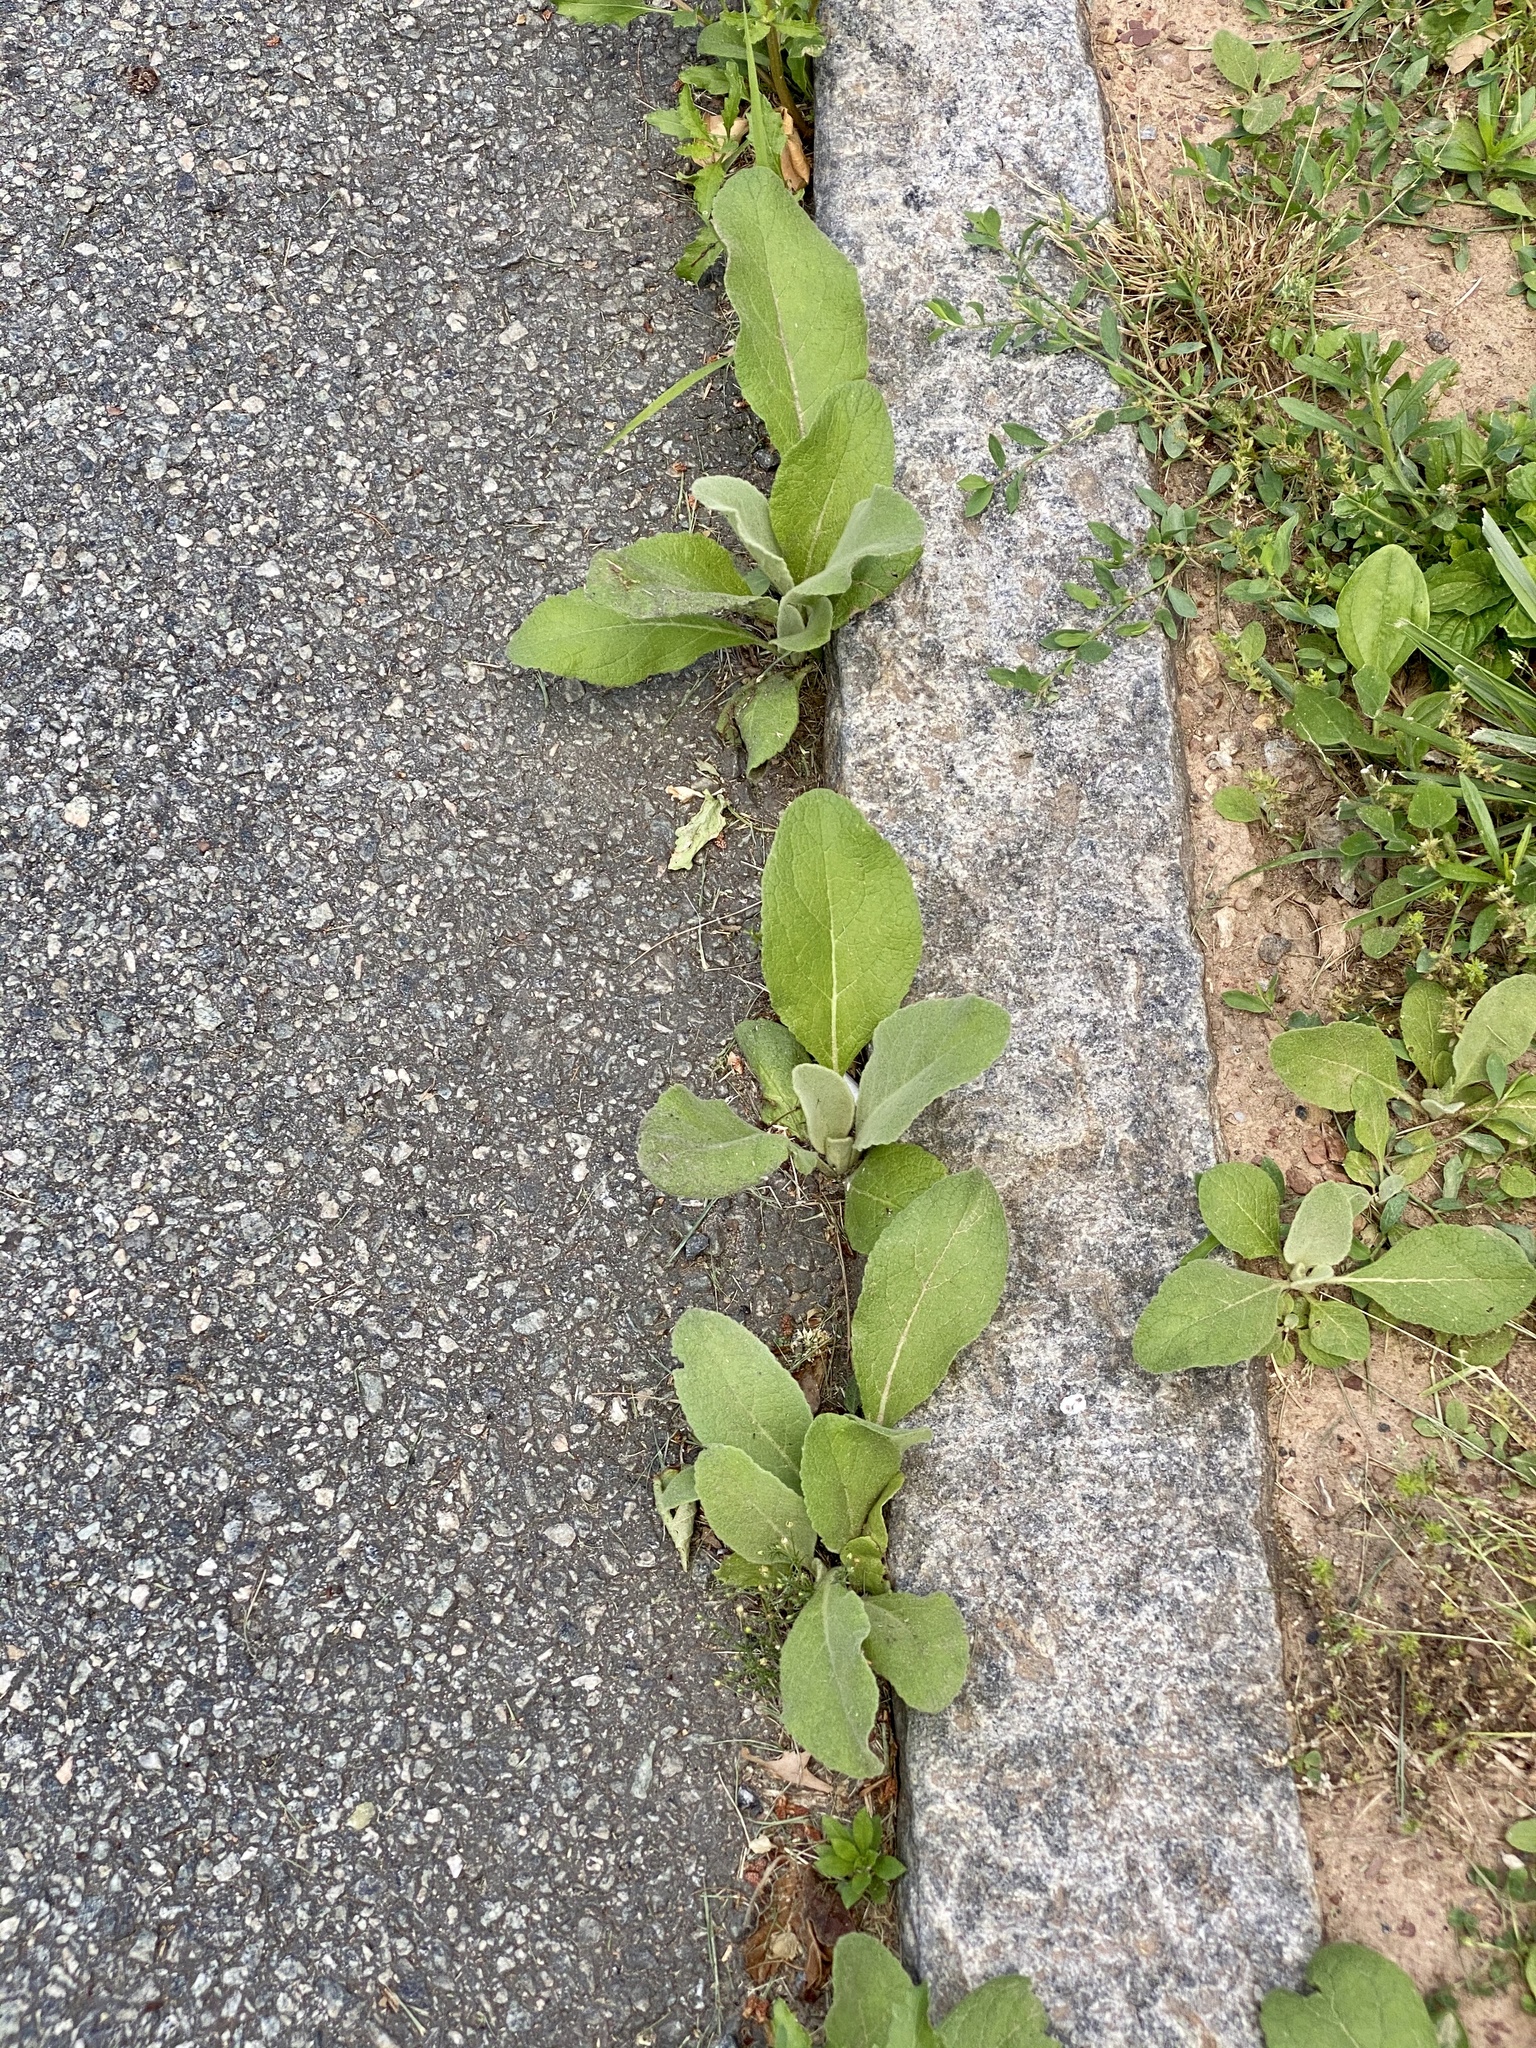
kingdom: Plantae
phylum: Tracheophyta
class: Magnoliopsida
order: Lamiales
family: Scrophulariaceae
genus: Verbascum
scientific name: Verbascum thapsus
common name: Common mullein
